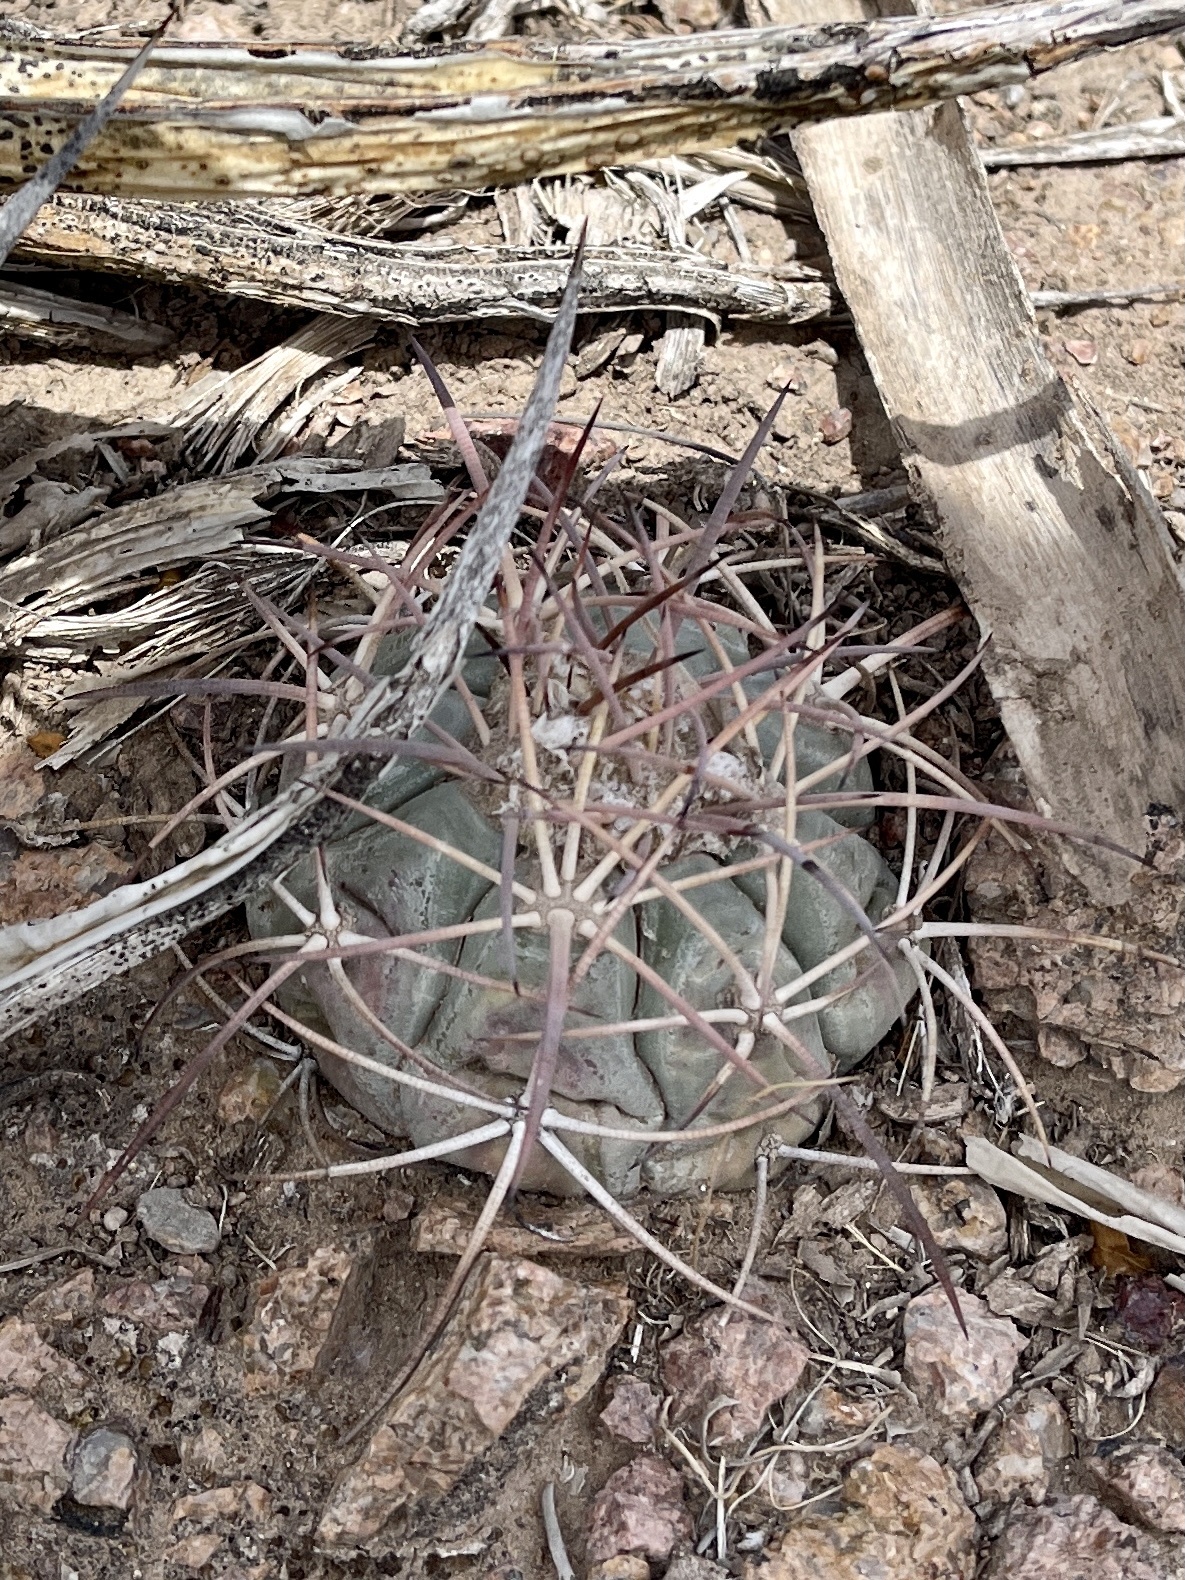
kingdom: Plantae
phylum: Tracheophyta
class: Magnoliopsida
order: Caryophyllales
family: Cactaceae
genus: Echinocactus
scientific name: Echinocactus horizonthalonius
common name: Devilshead
